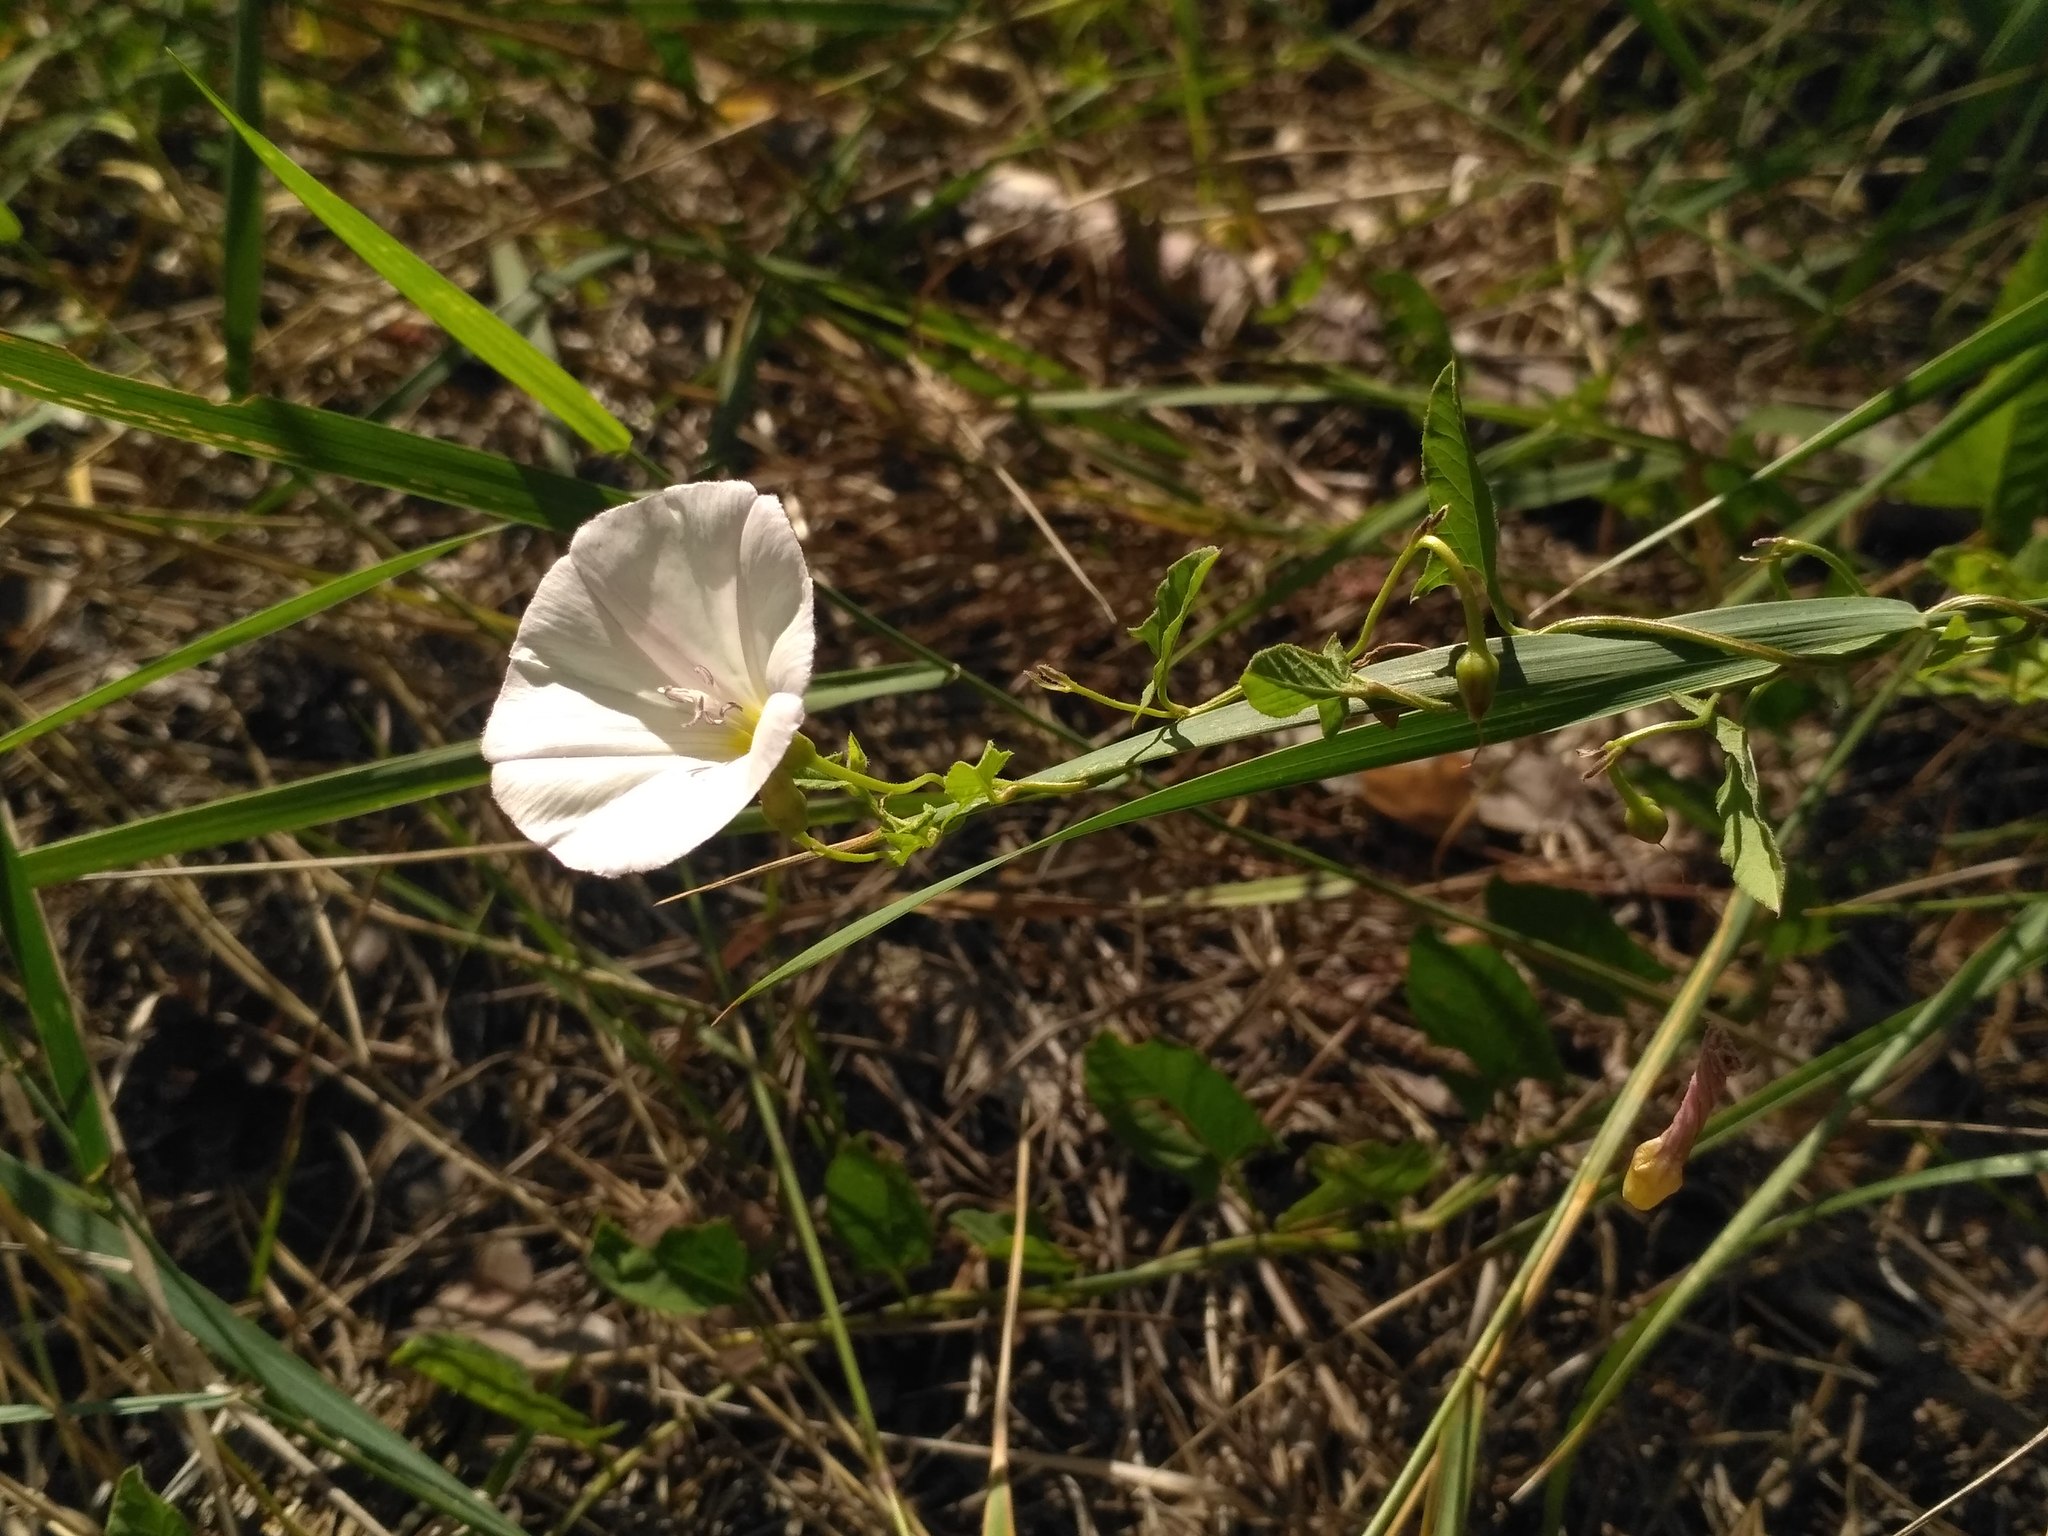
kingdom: Plantae
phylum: Tracheophyta
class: Magnoliopsida
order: Solanales
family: Convolvulaceae
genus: Convolvulus
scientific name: Convolvulus arvensis
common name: Field bindweed
